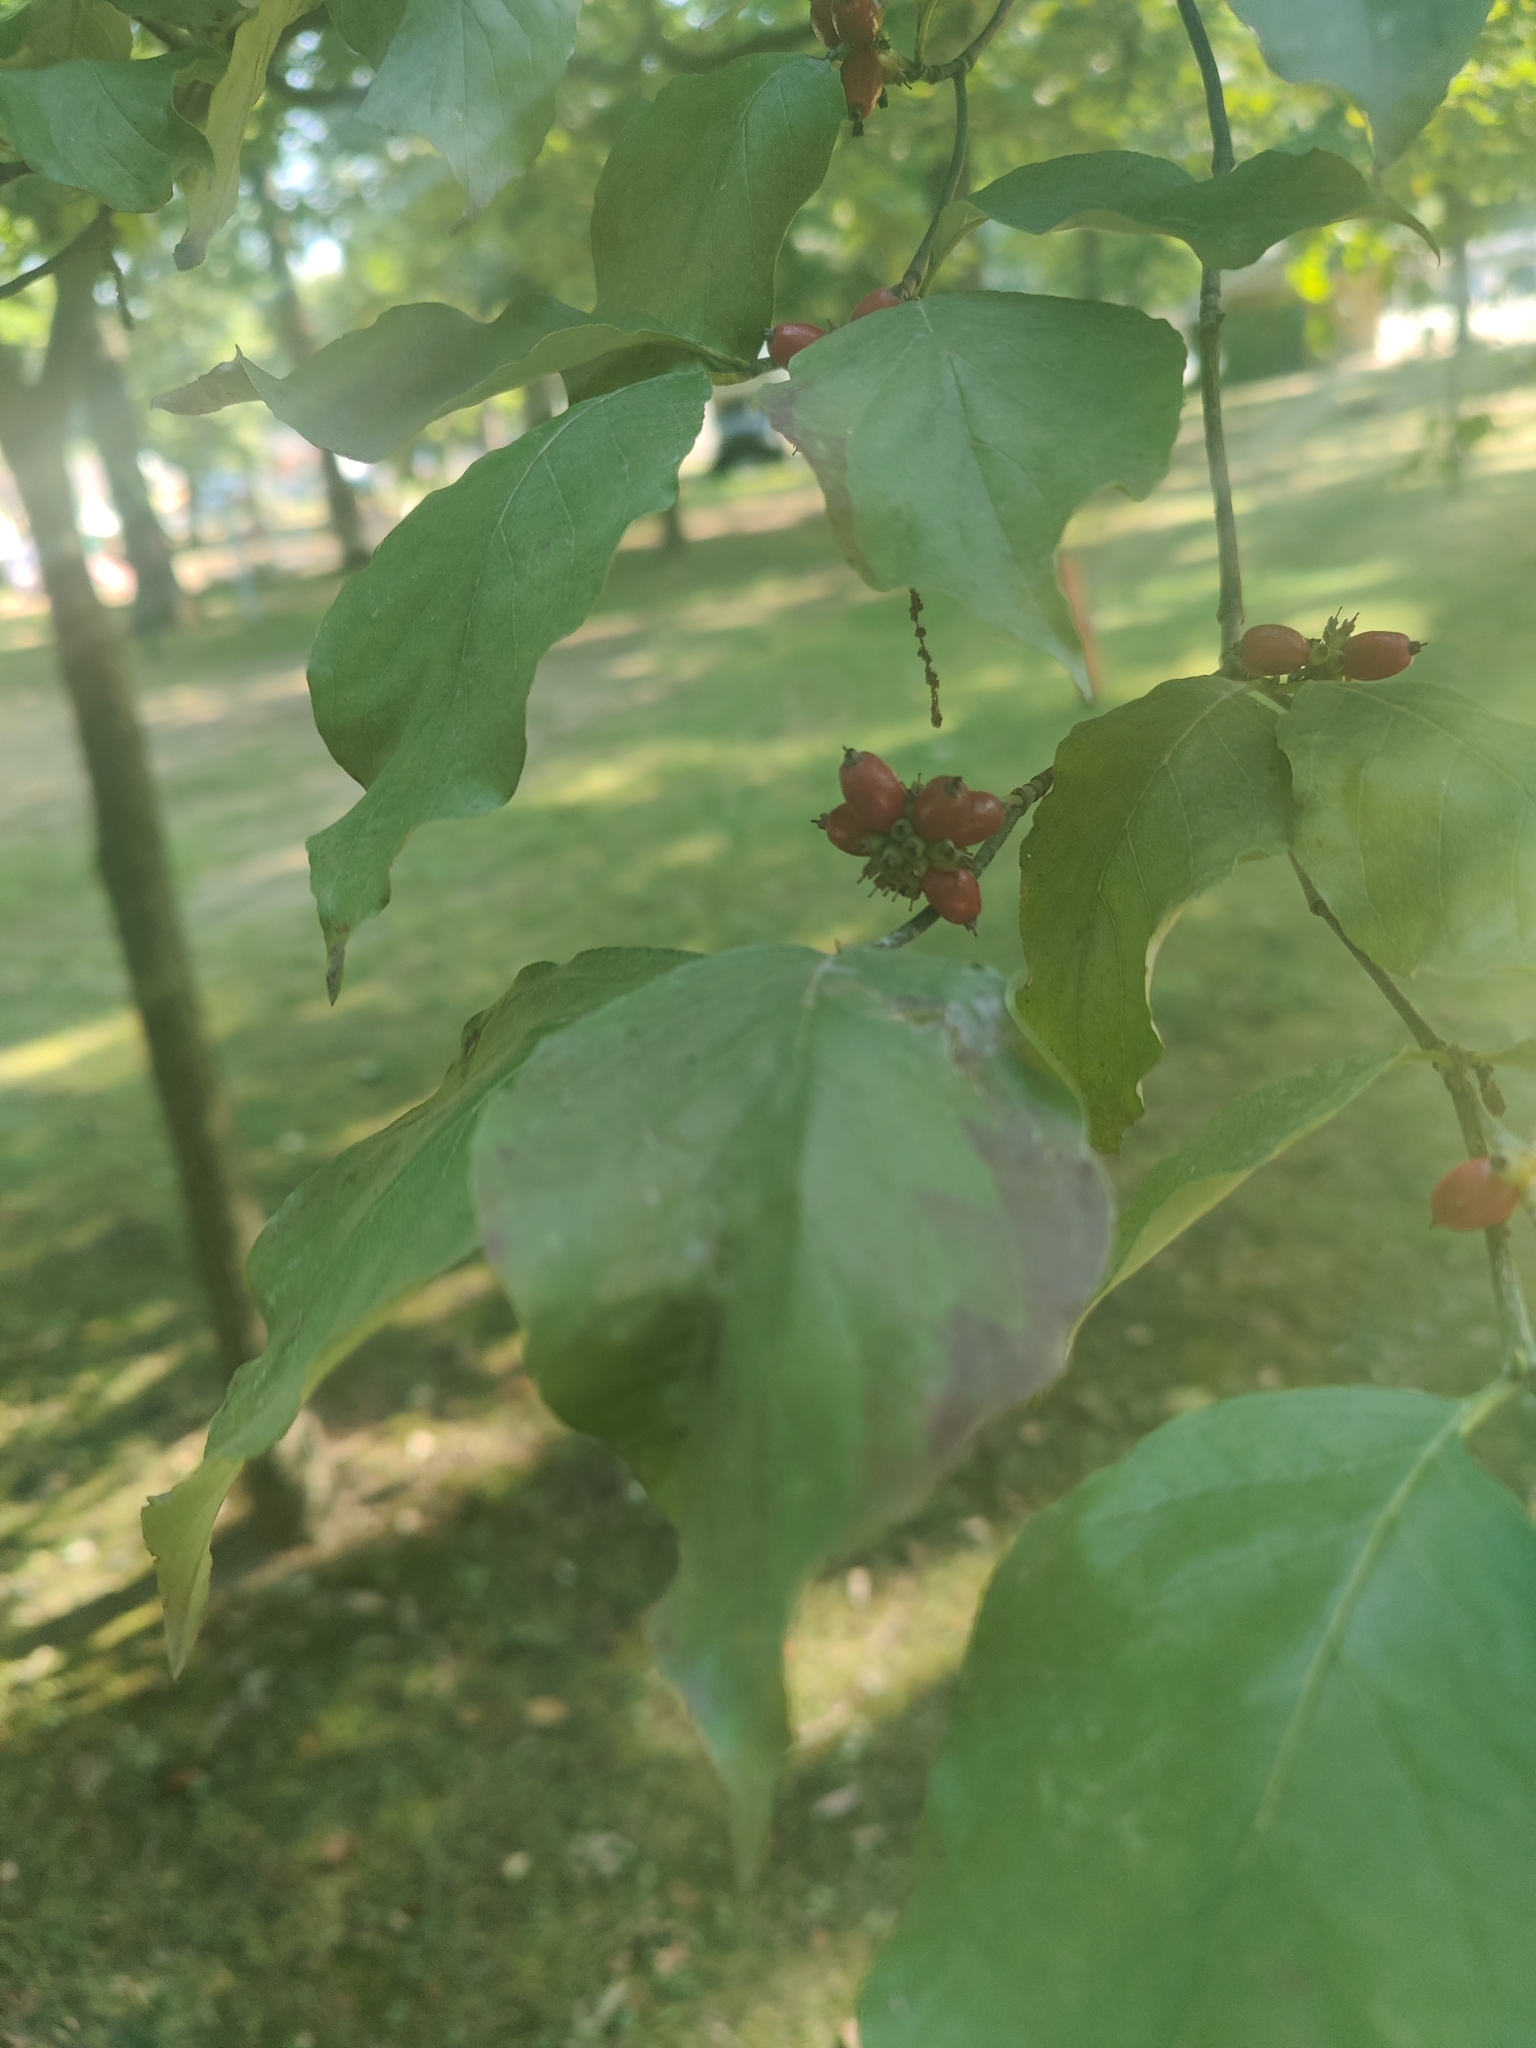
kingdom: Plantae
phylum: Tracheophyta
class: Magnoliopsida
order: Cornales
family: Cornaceae
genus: Cornus
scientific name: Cornus florida
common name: Flowering dogwood
